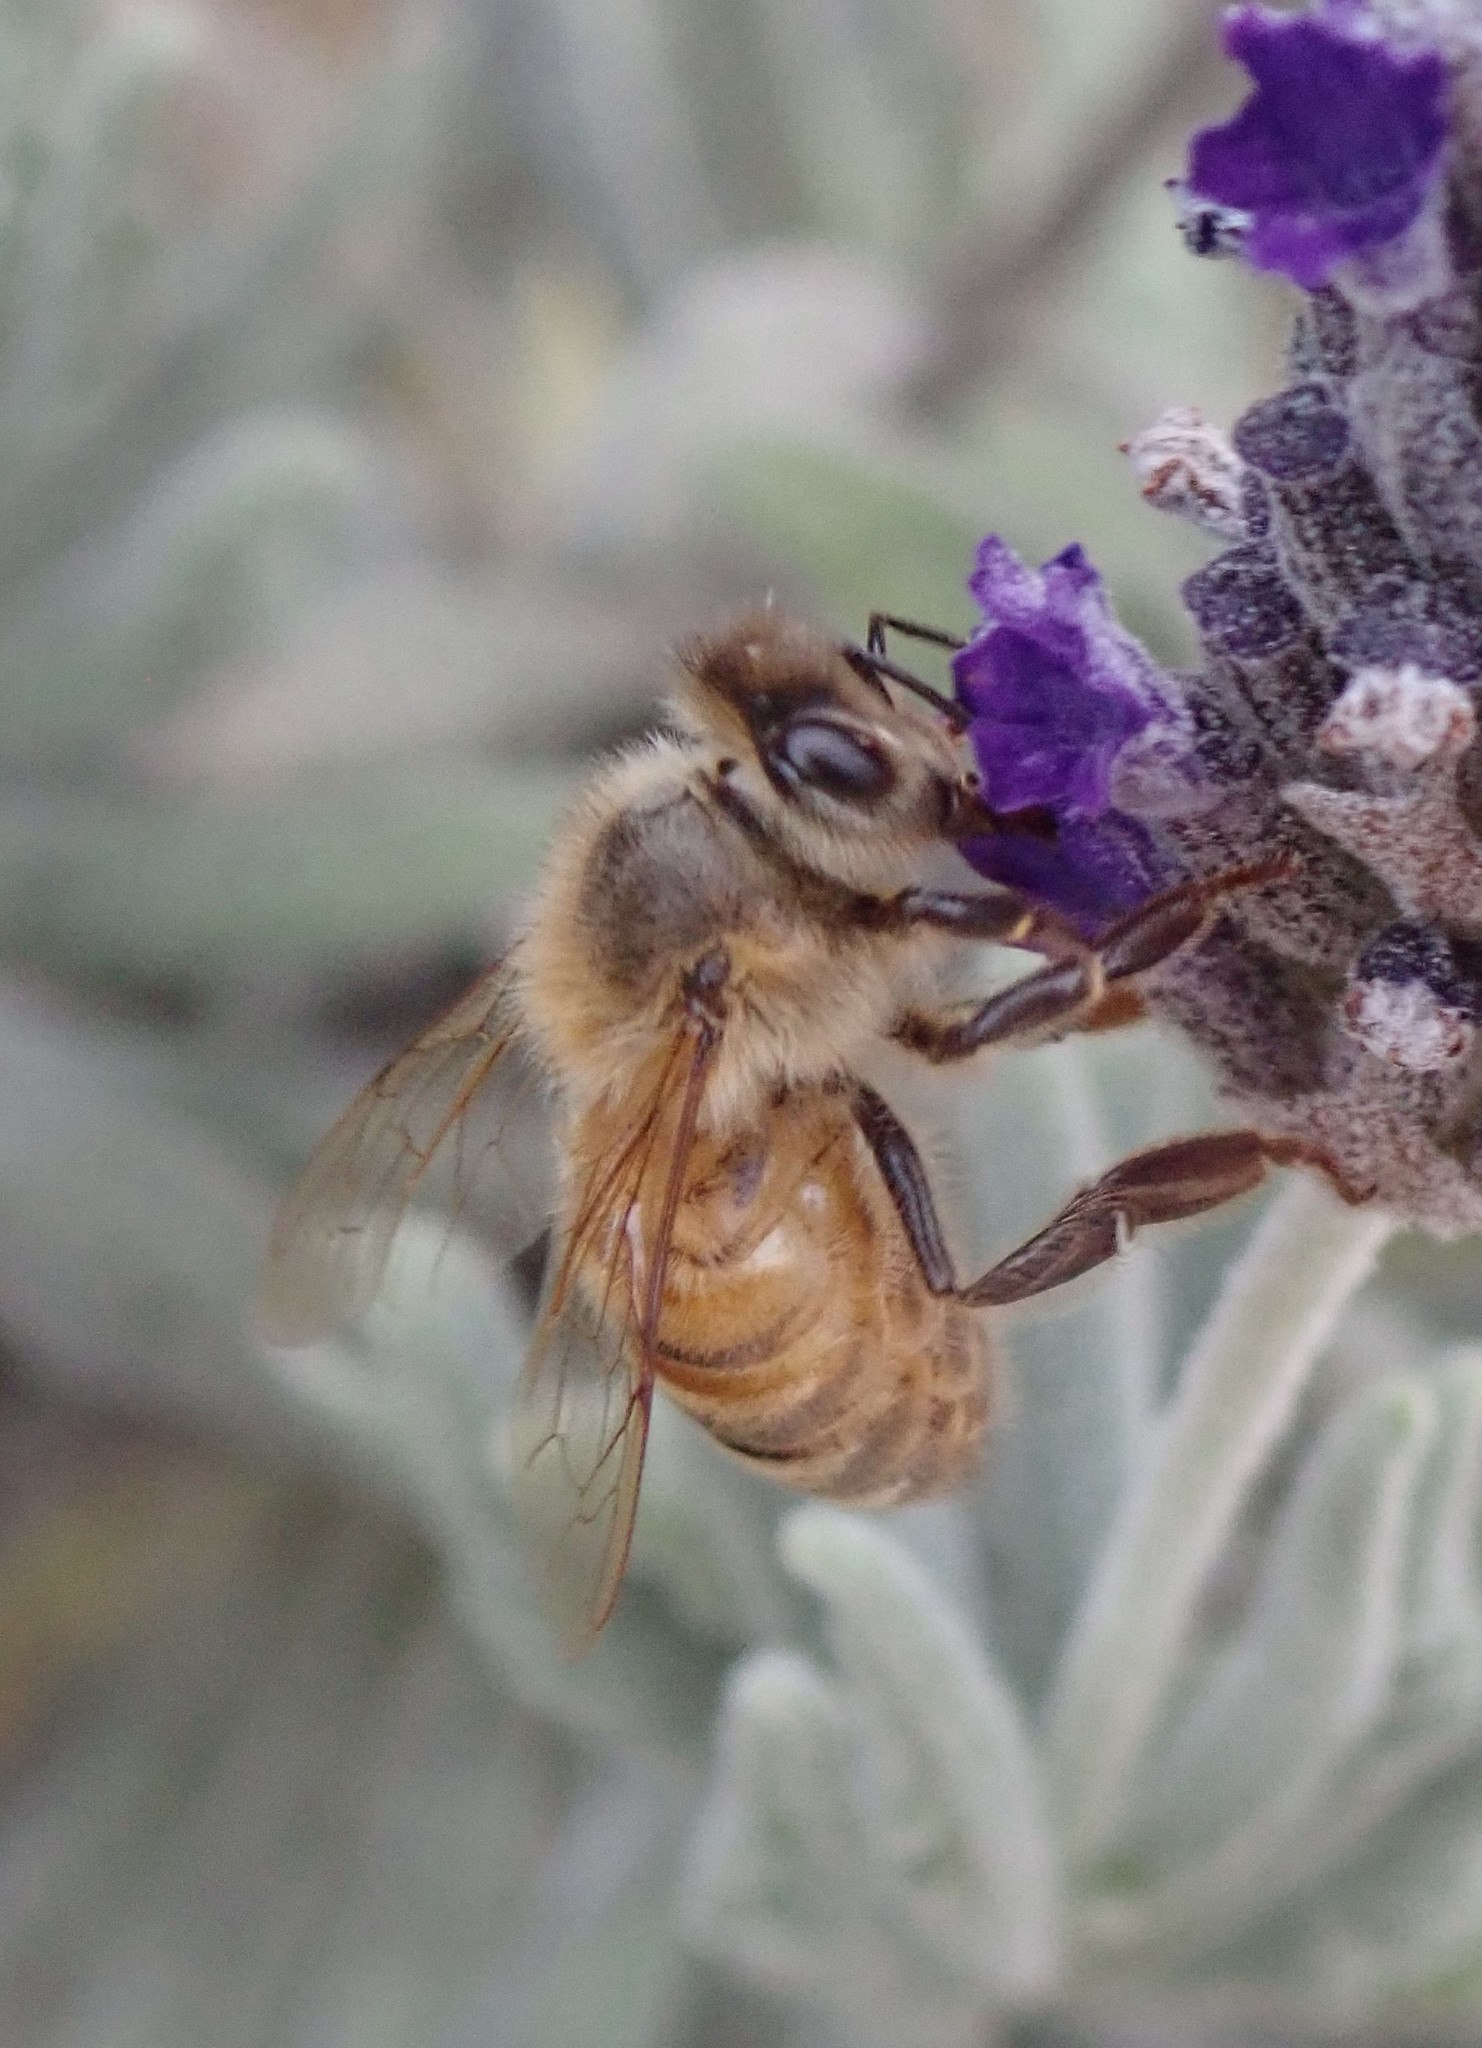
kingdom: Animalia
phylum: Arthropoda
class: Insecta
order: Hymenoptera
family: Apidae
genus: Apis
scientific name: Apis mellifera
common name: Honey bee
